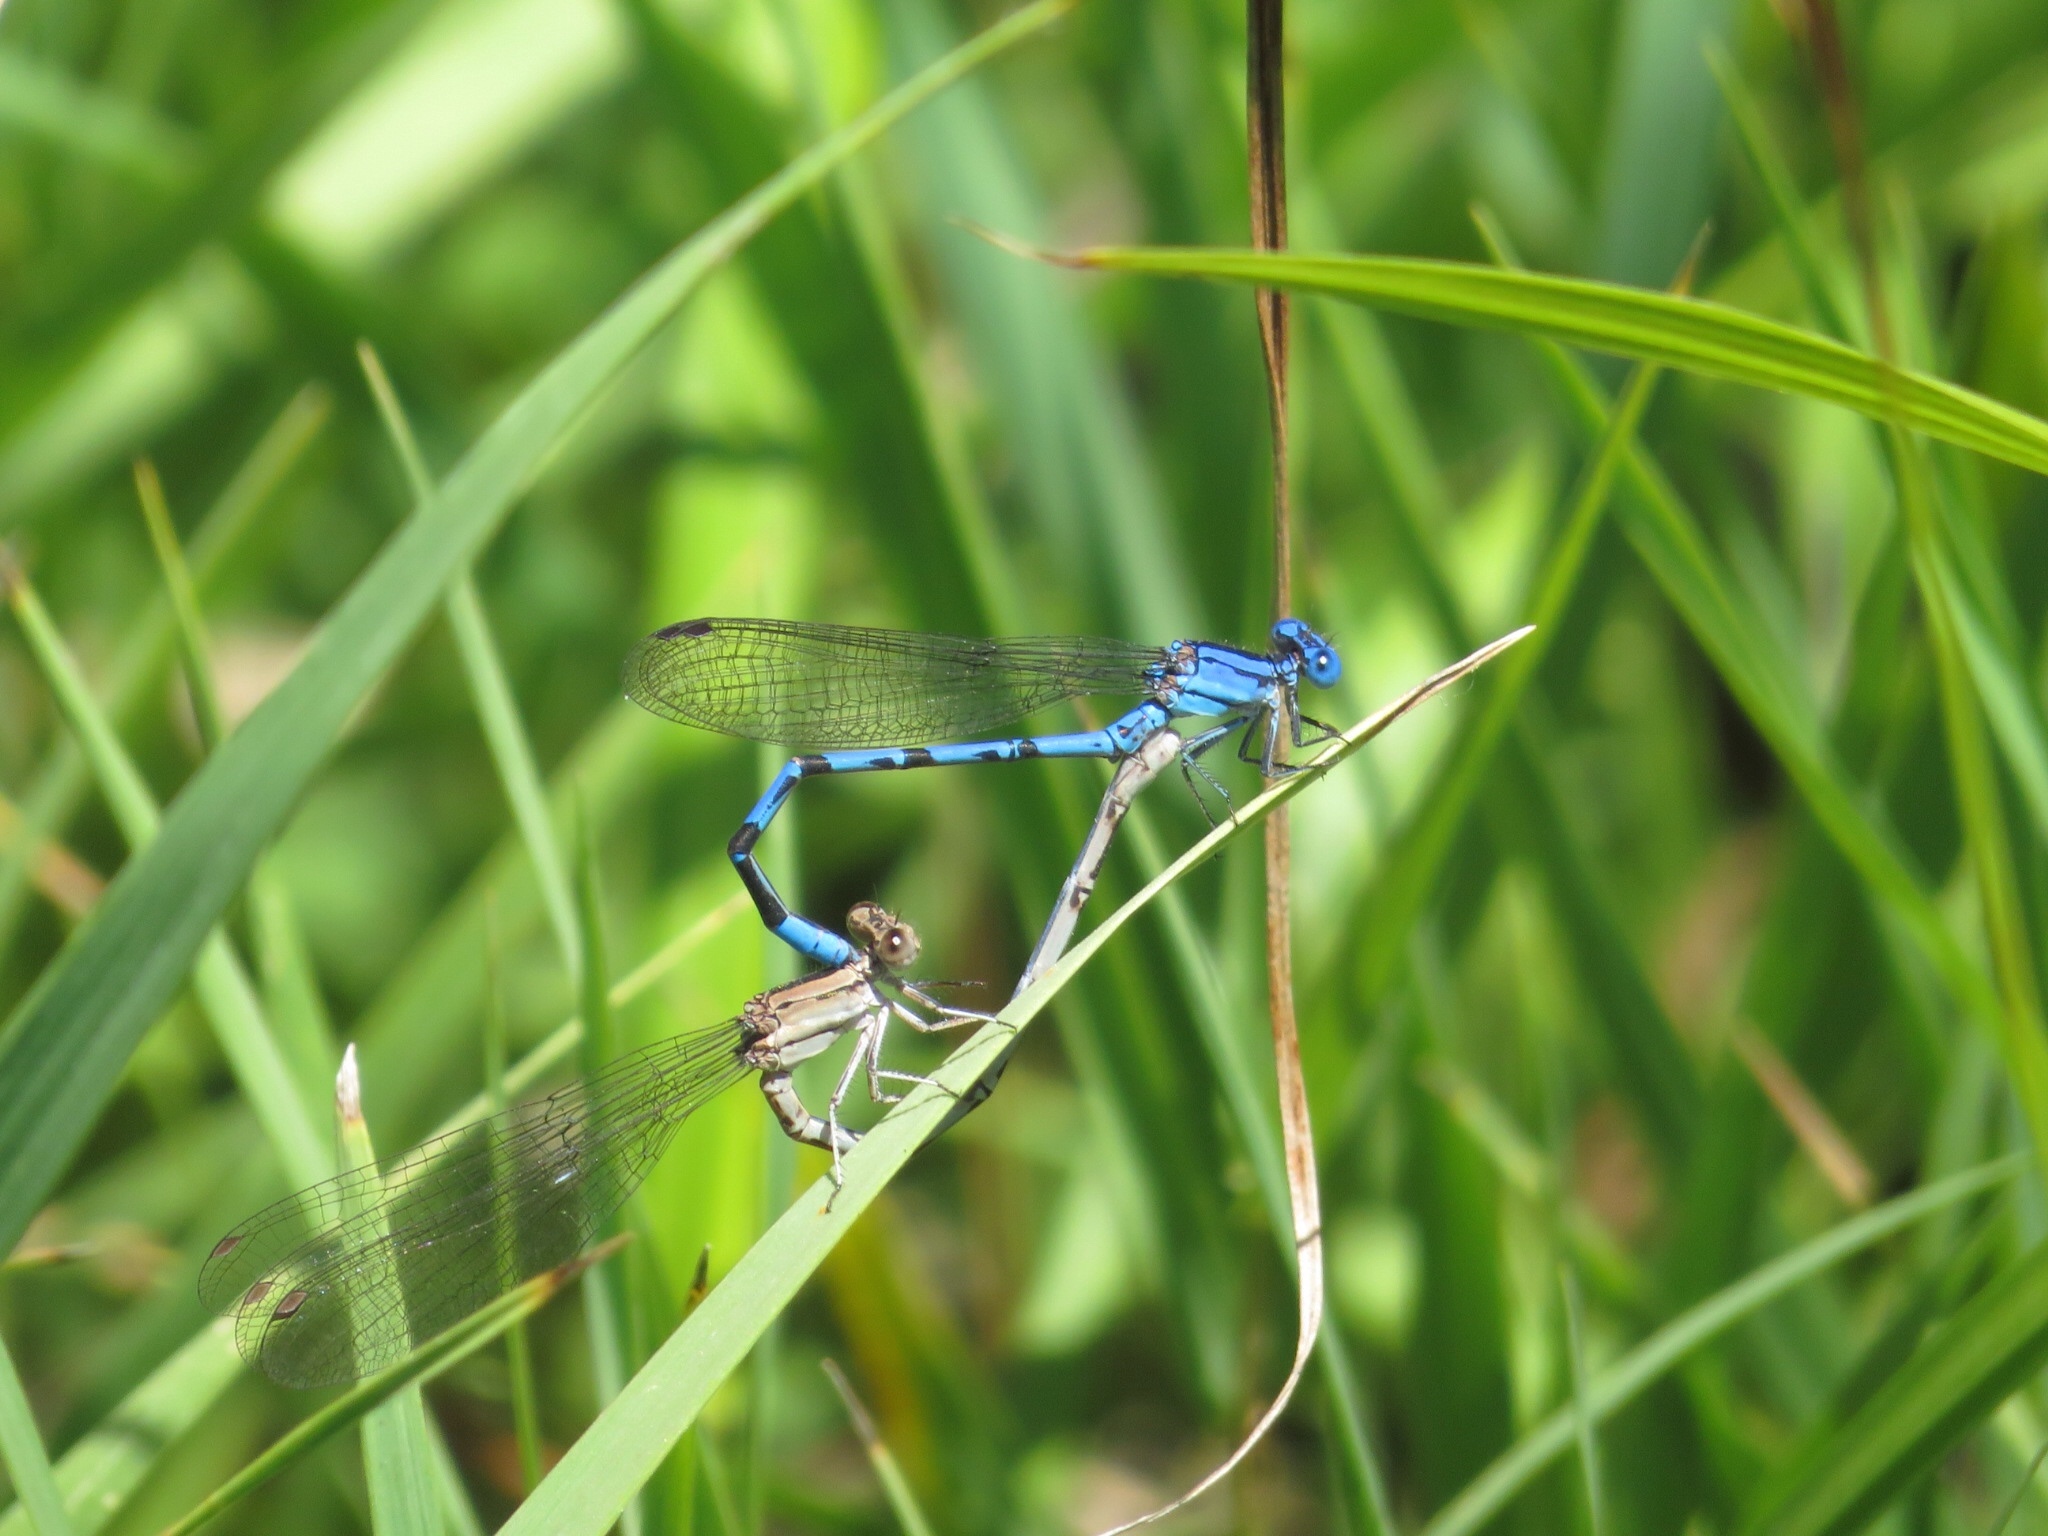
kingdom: Animalia
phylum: Arthropoda
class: Insecta
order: Odonata
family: Coenagrionidae
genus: Argia
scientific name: Argia funebris
